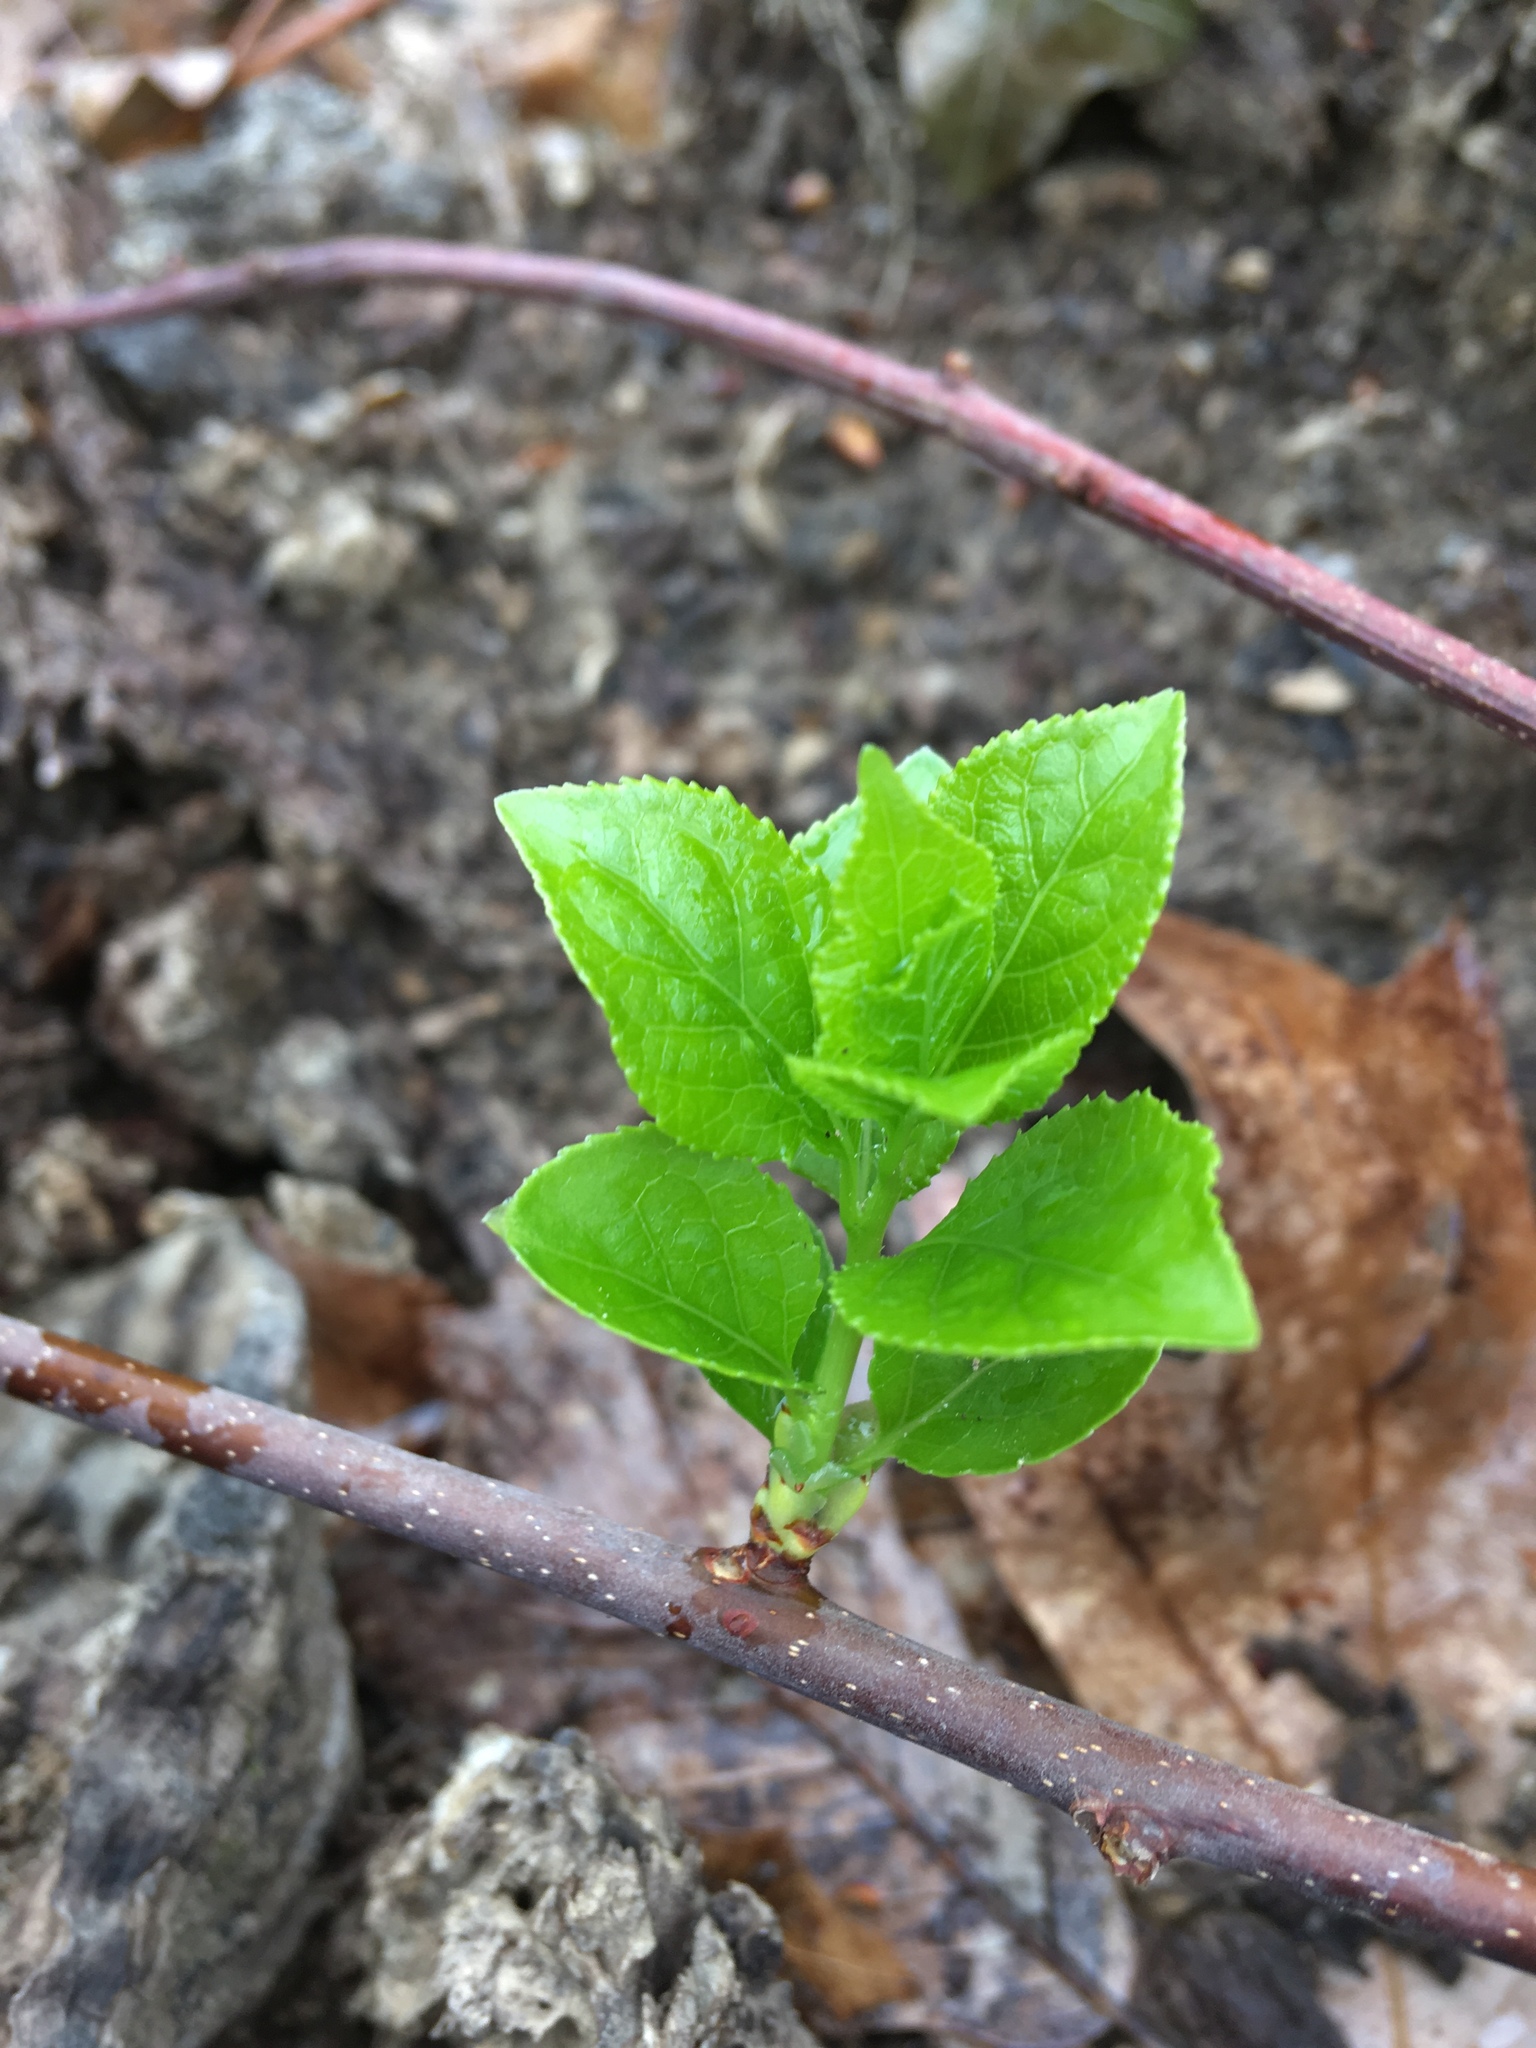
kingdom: Plantae
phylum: Tracheophyta
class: Magnoliopsida
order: Celastrales
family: Celastraceae
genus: Celastrus
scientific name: Celastrus orbiculatus
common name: Oriental bittersweet
